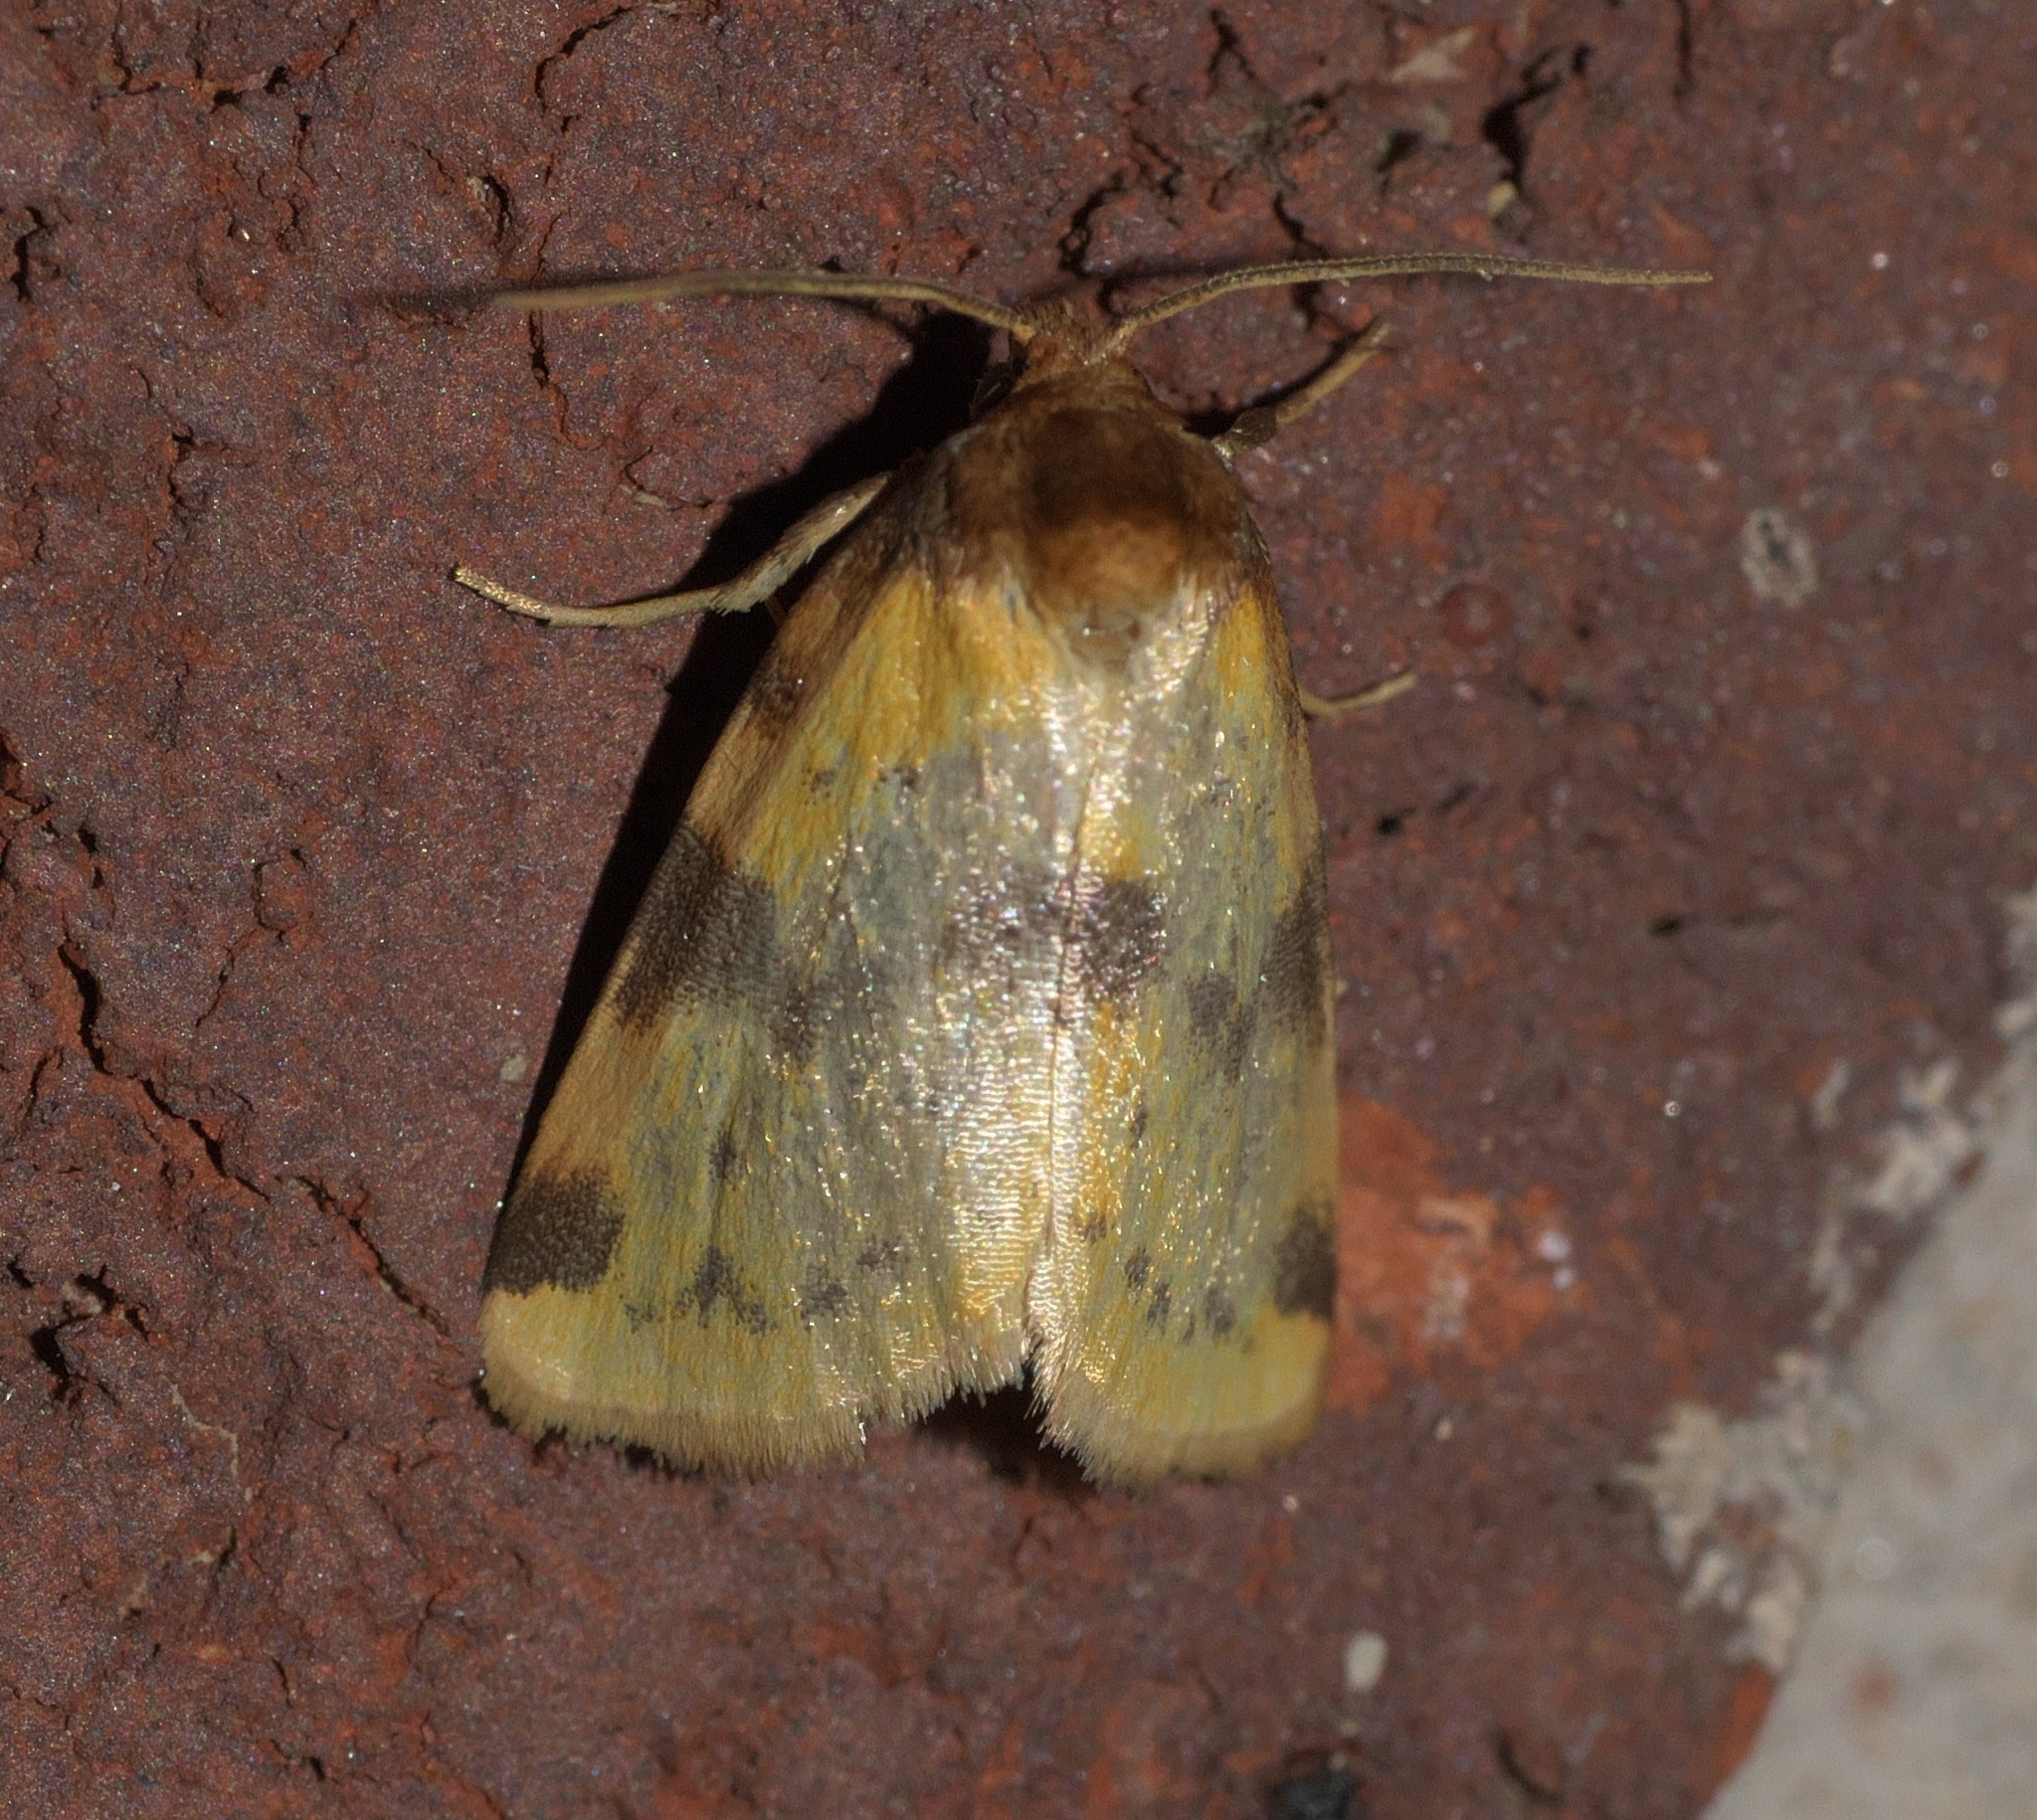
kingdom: Animalia
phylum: Arthropoda
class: Insecta
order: Lepidoptera
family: Noctuidae
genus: Azenia
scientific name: Azenia obtusa
